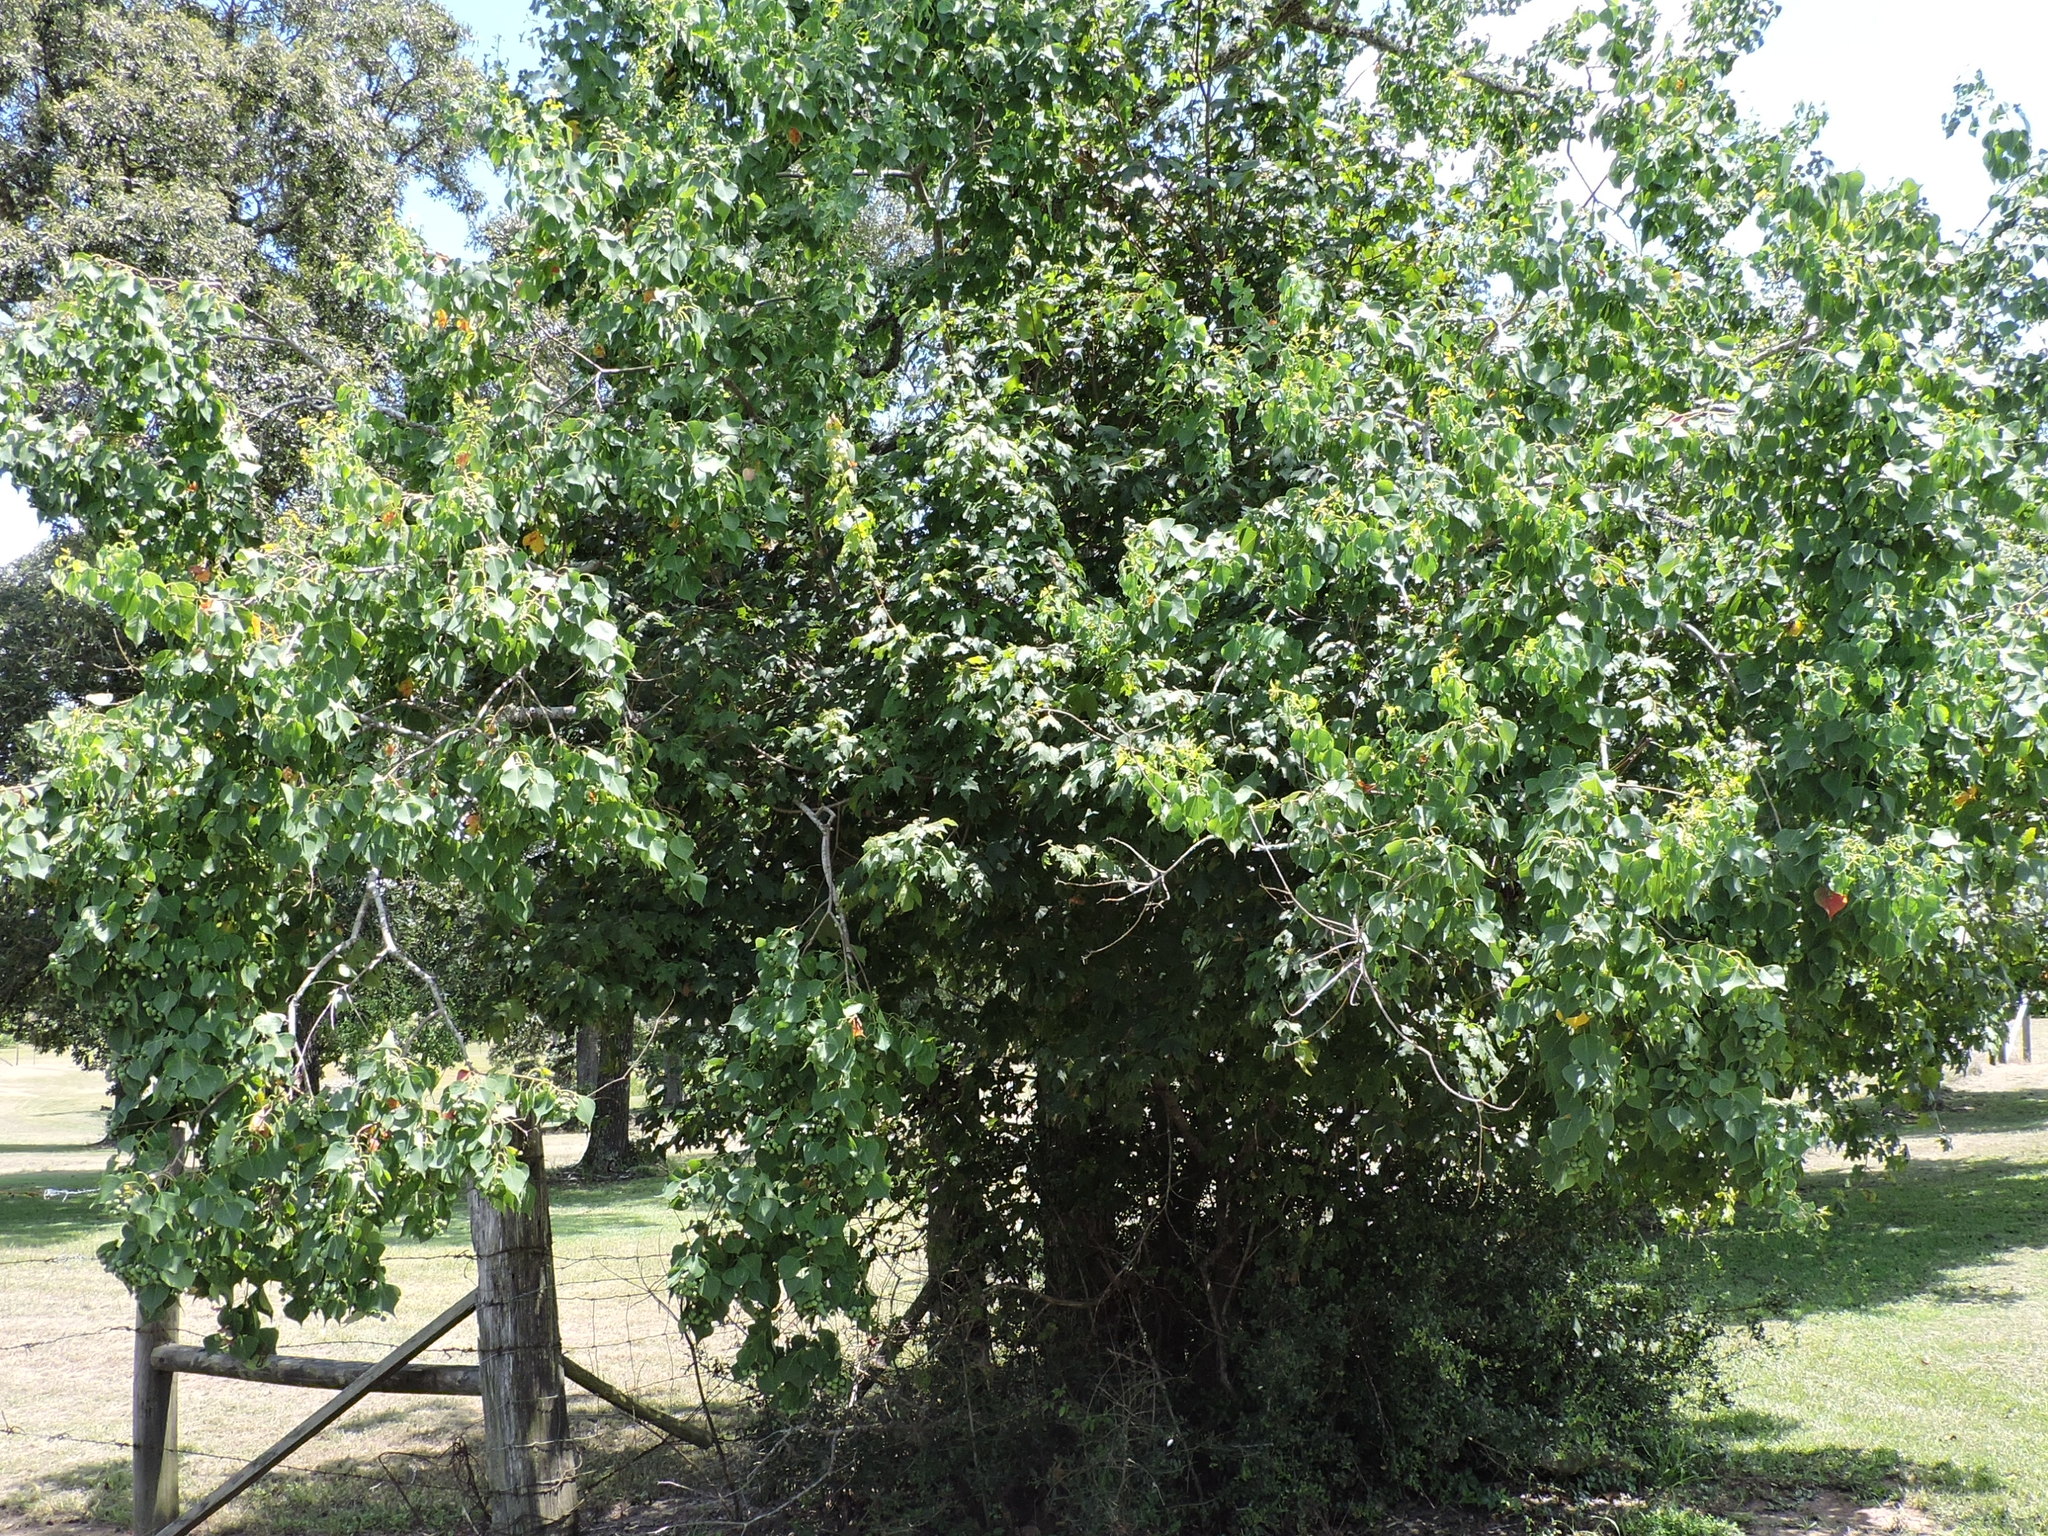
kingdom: Plantae
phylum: Tracheophyta
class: Magnoliopsida
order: Malpighiales
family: Euphorbiaceae
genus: Triadica
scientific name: Triadica sebifera
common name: Chinese tallow
